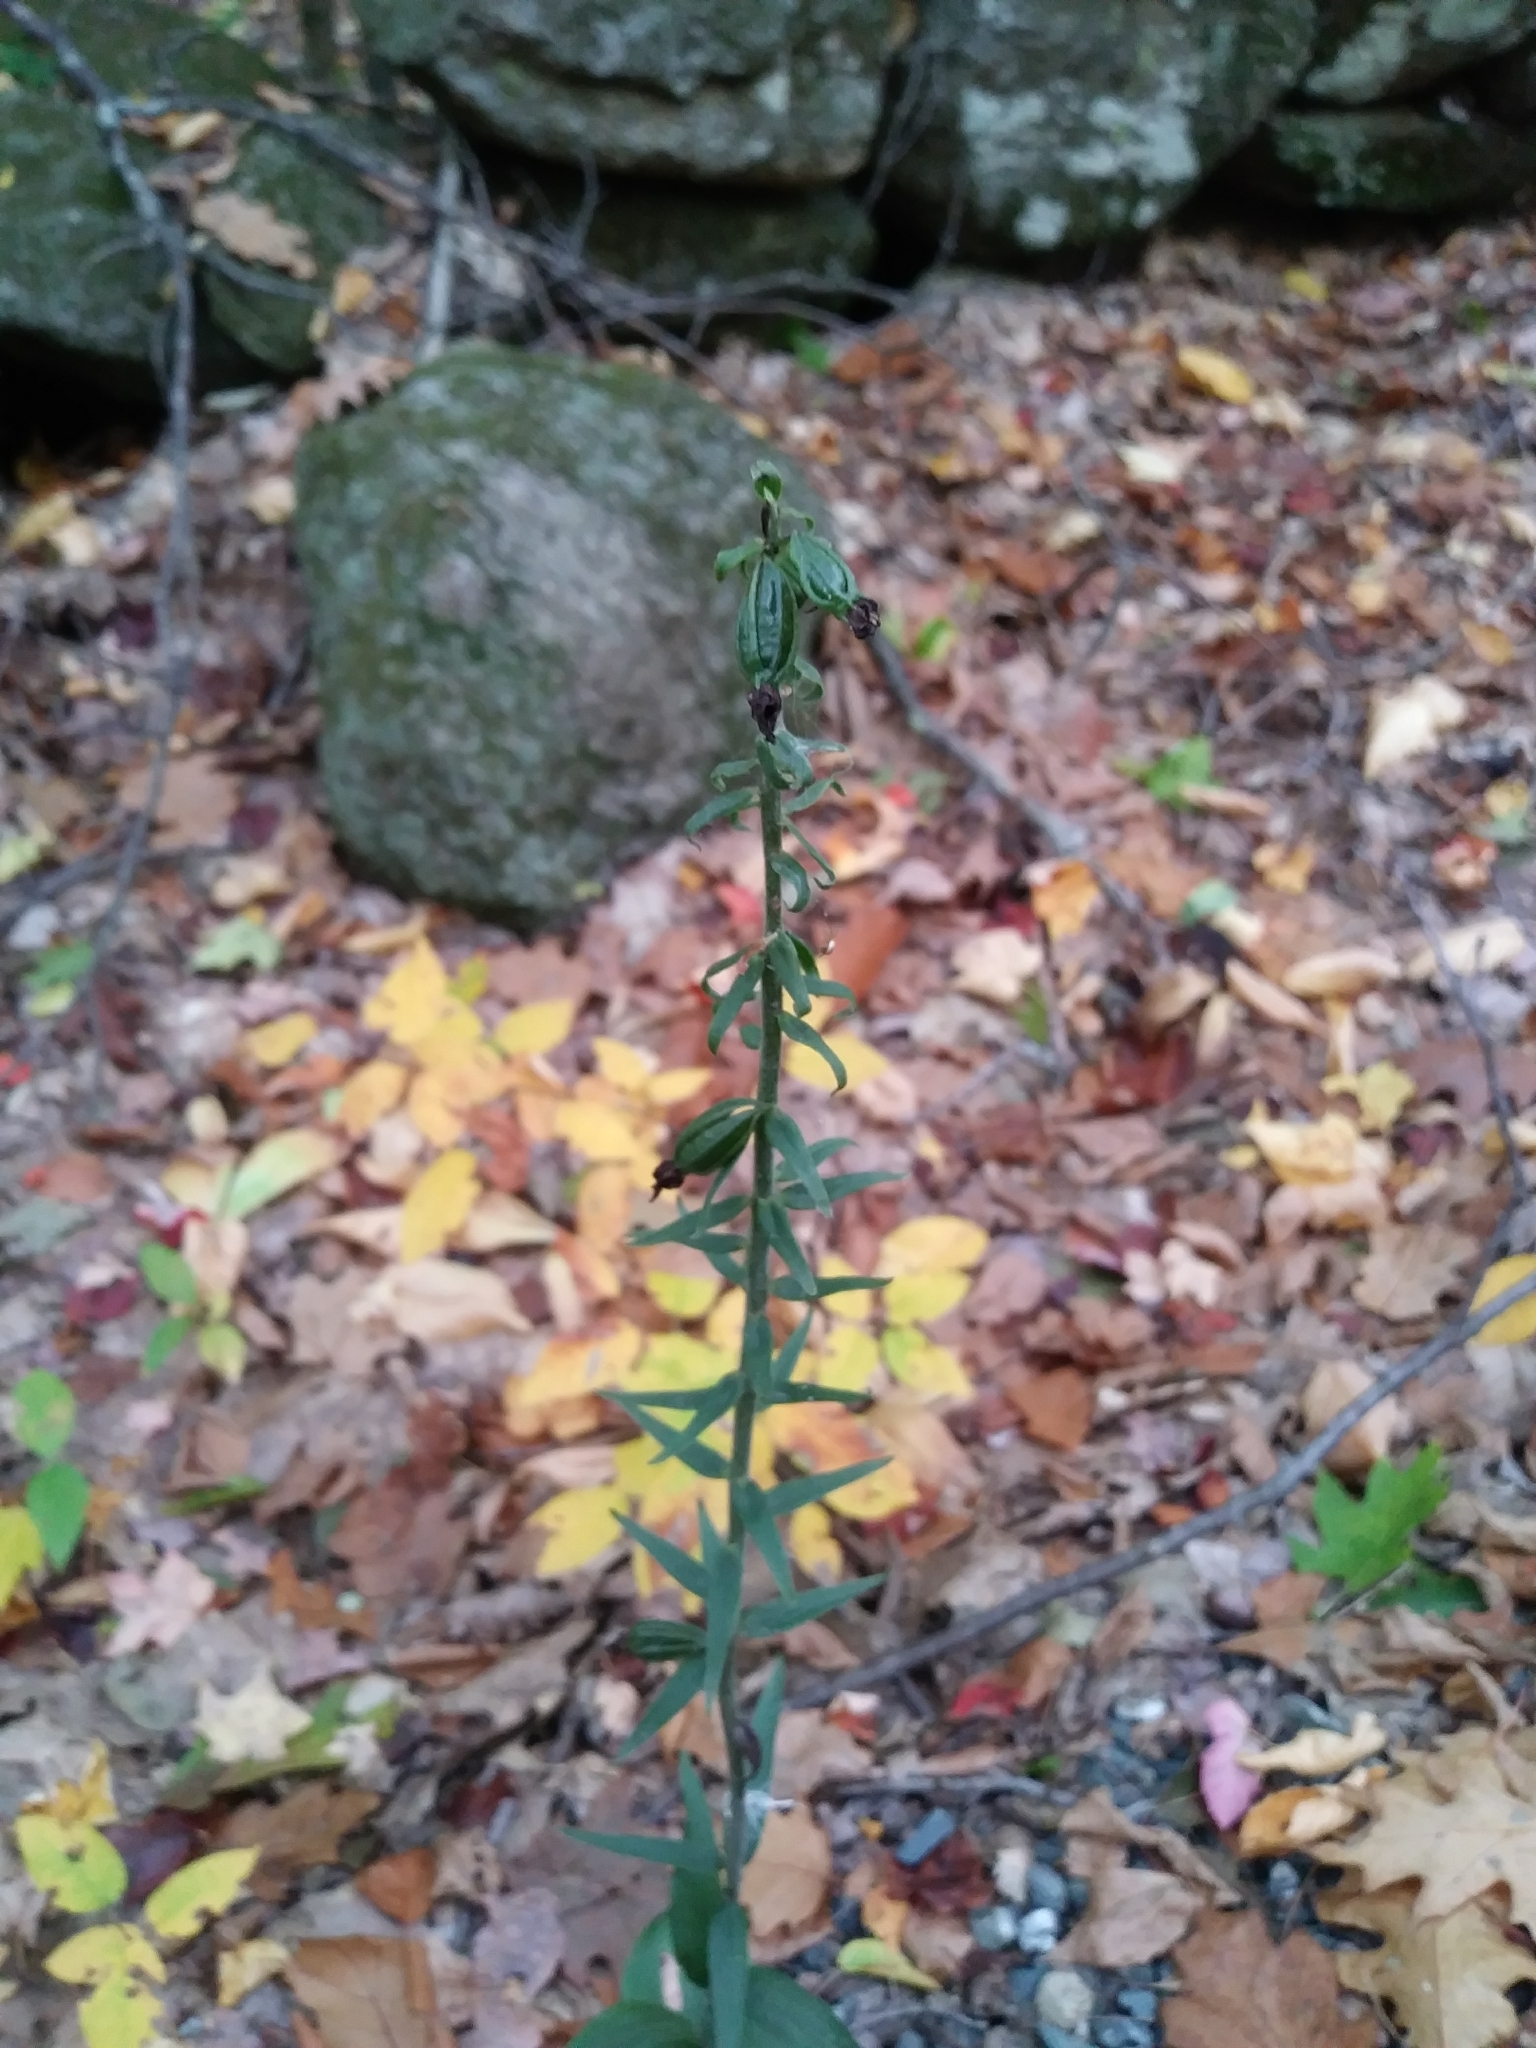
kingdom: Plantae
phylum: Tracheophyta
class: Liliopsida
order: Asparagales
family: Orchidaceae
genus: Epipactis
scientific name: Epipactis helleborine
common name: Broad-leaved helleborine
